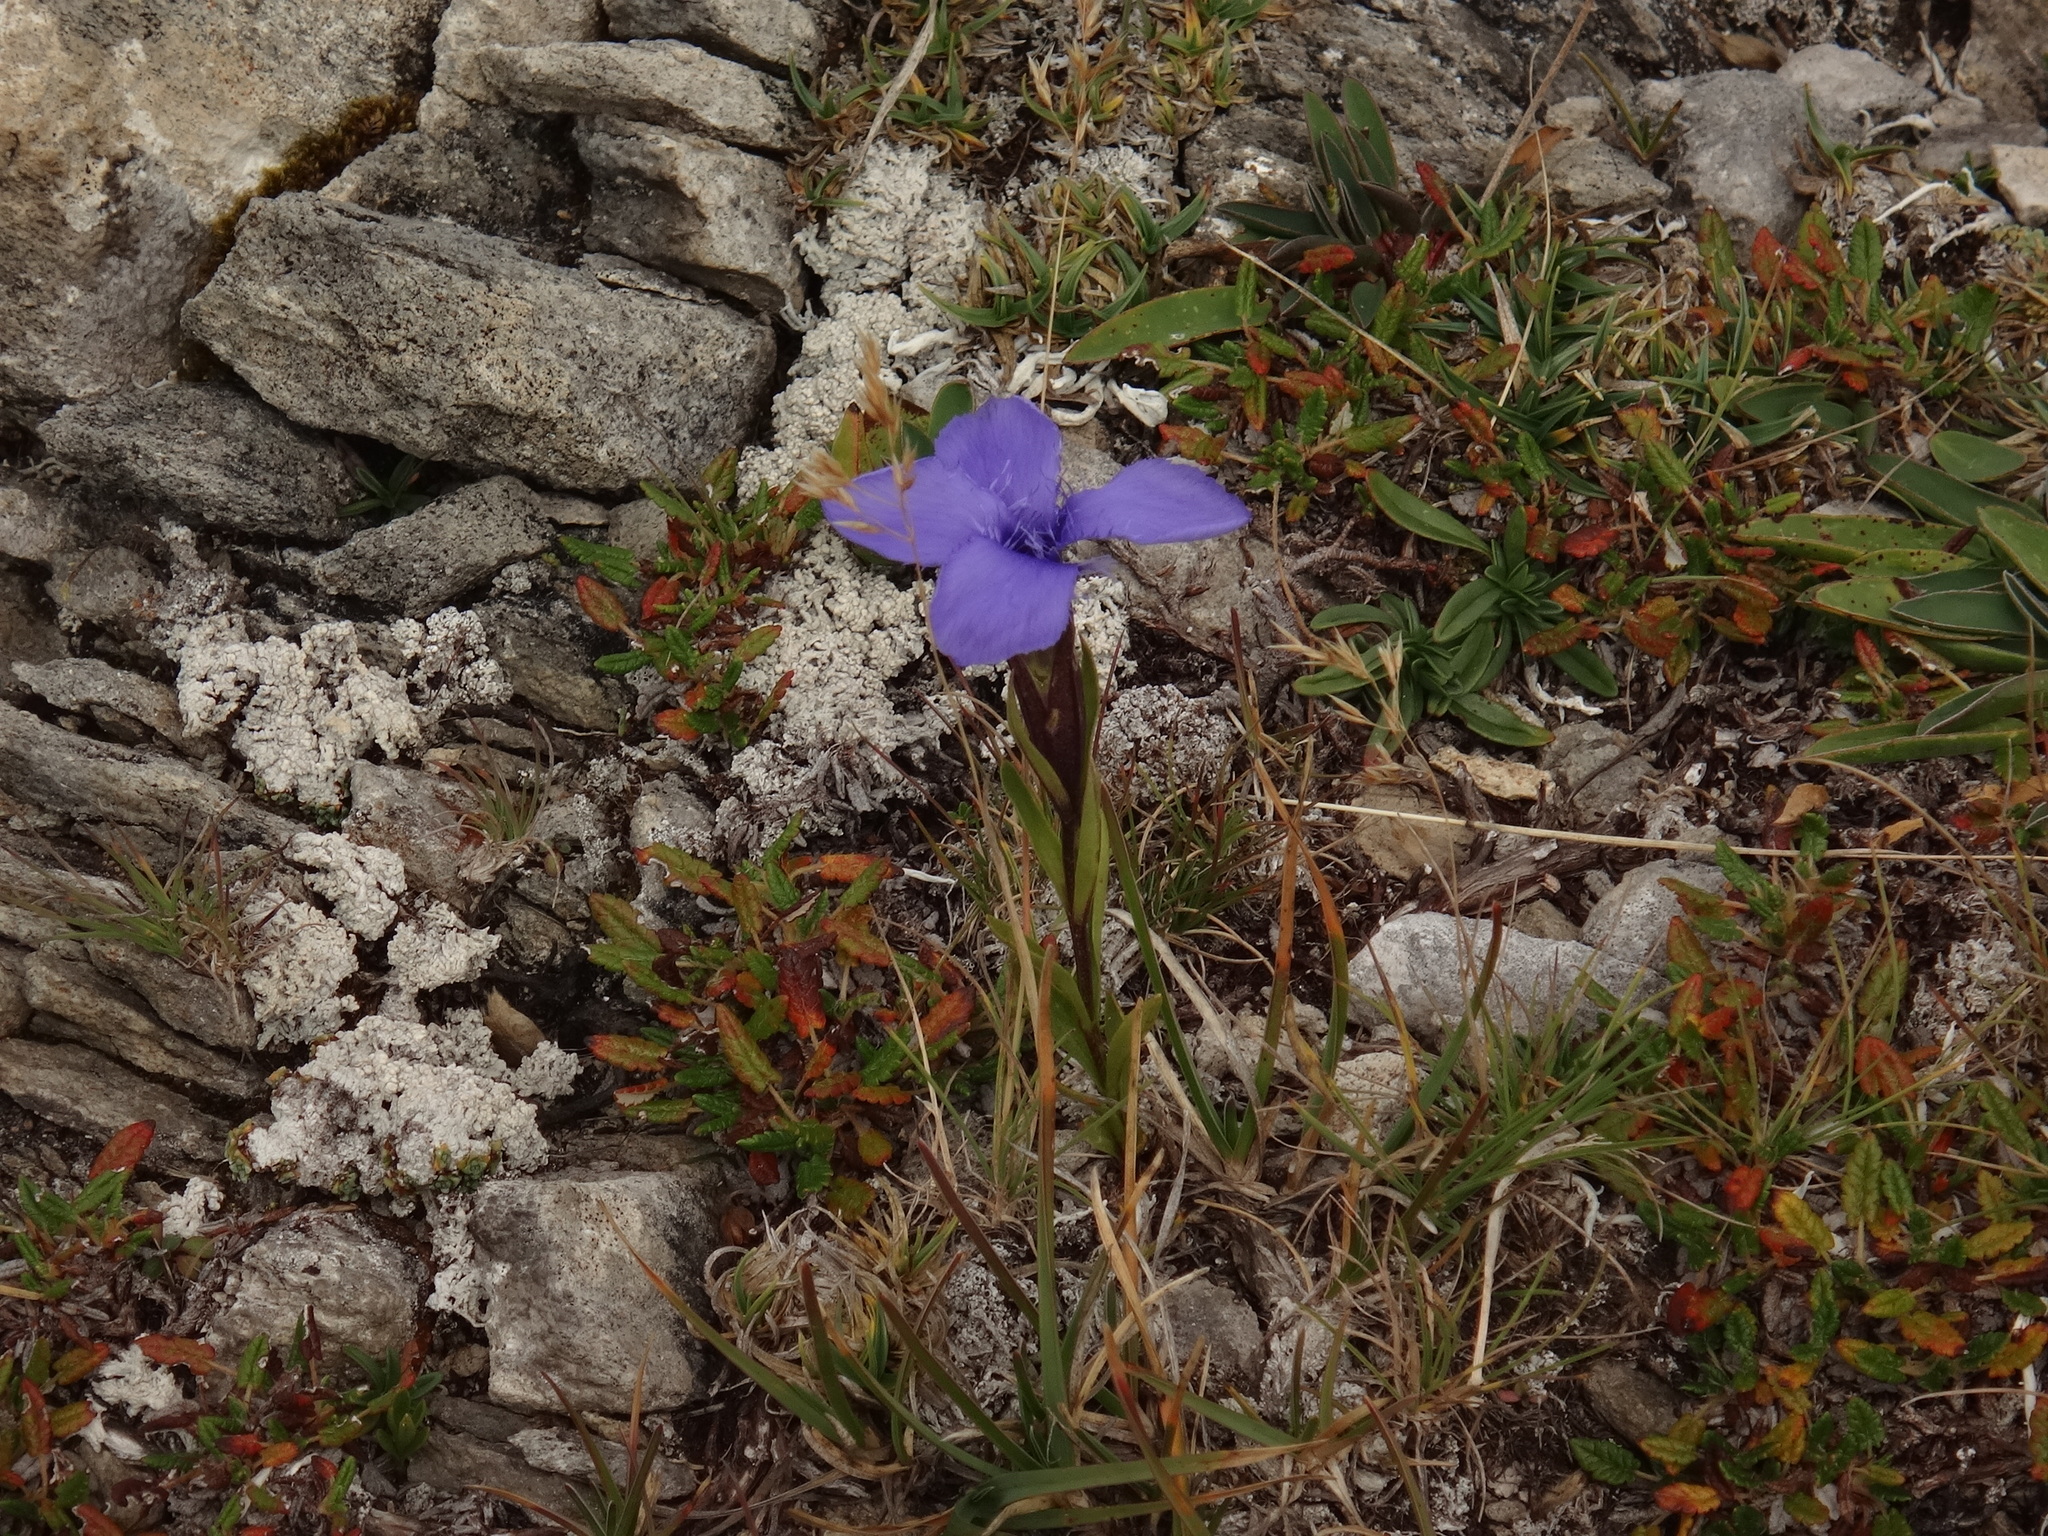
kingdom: Plantae
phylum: Tracheophyta
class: Magnoliopsida
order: Gentianales
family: Gentianaceae
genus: Gentianopsis
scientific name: Gentianopsis ciliata
